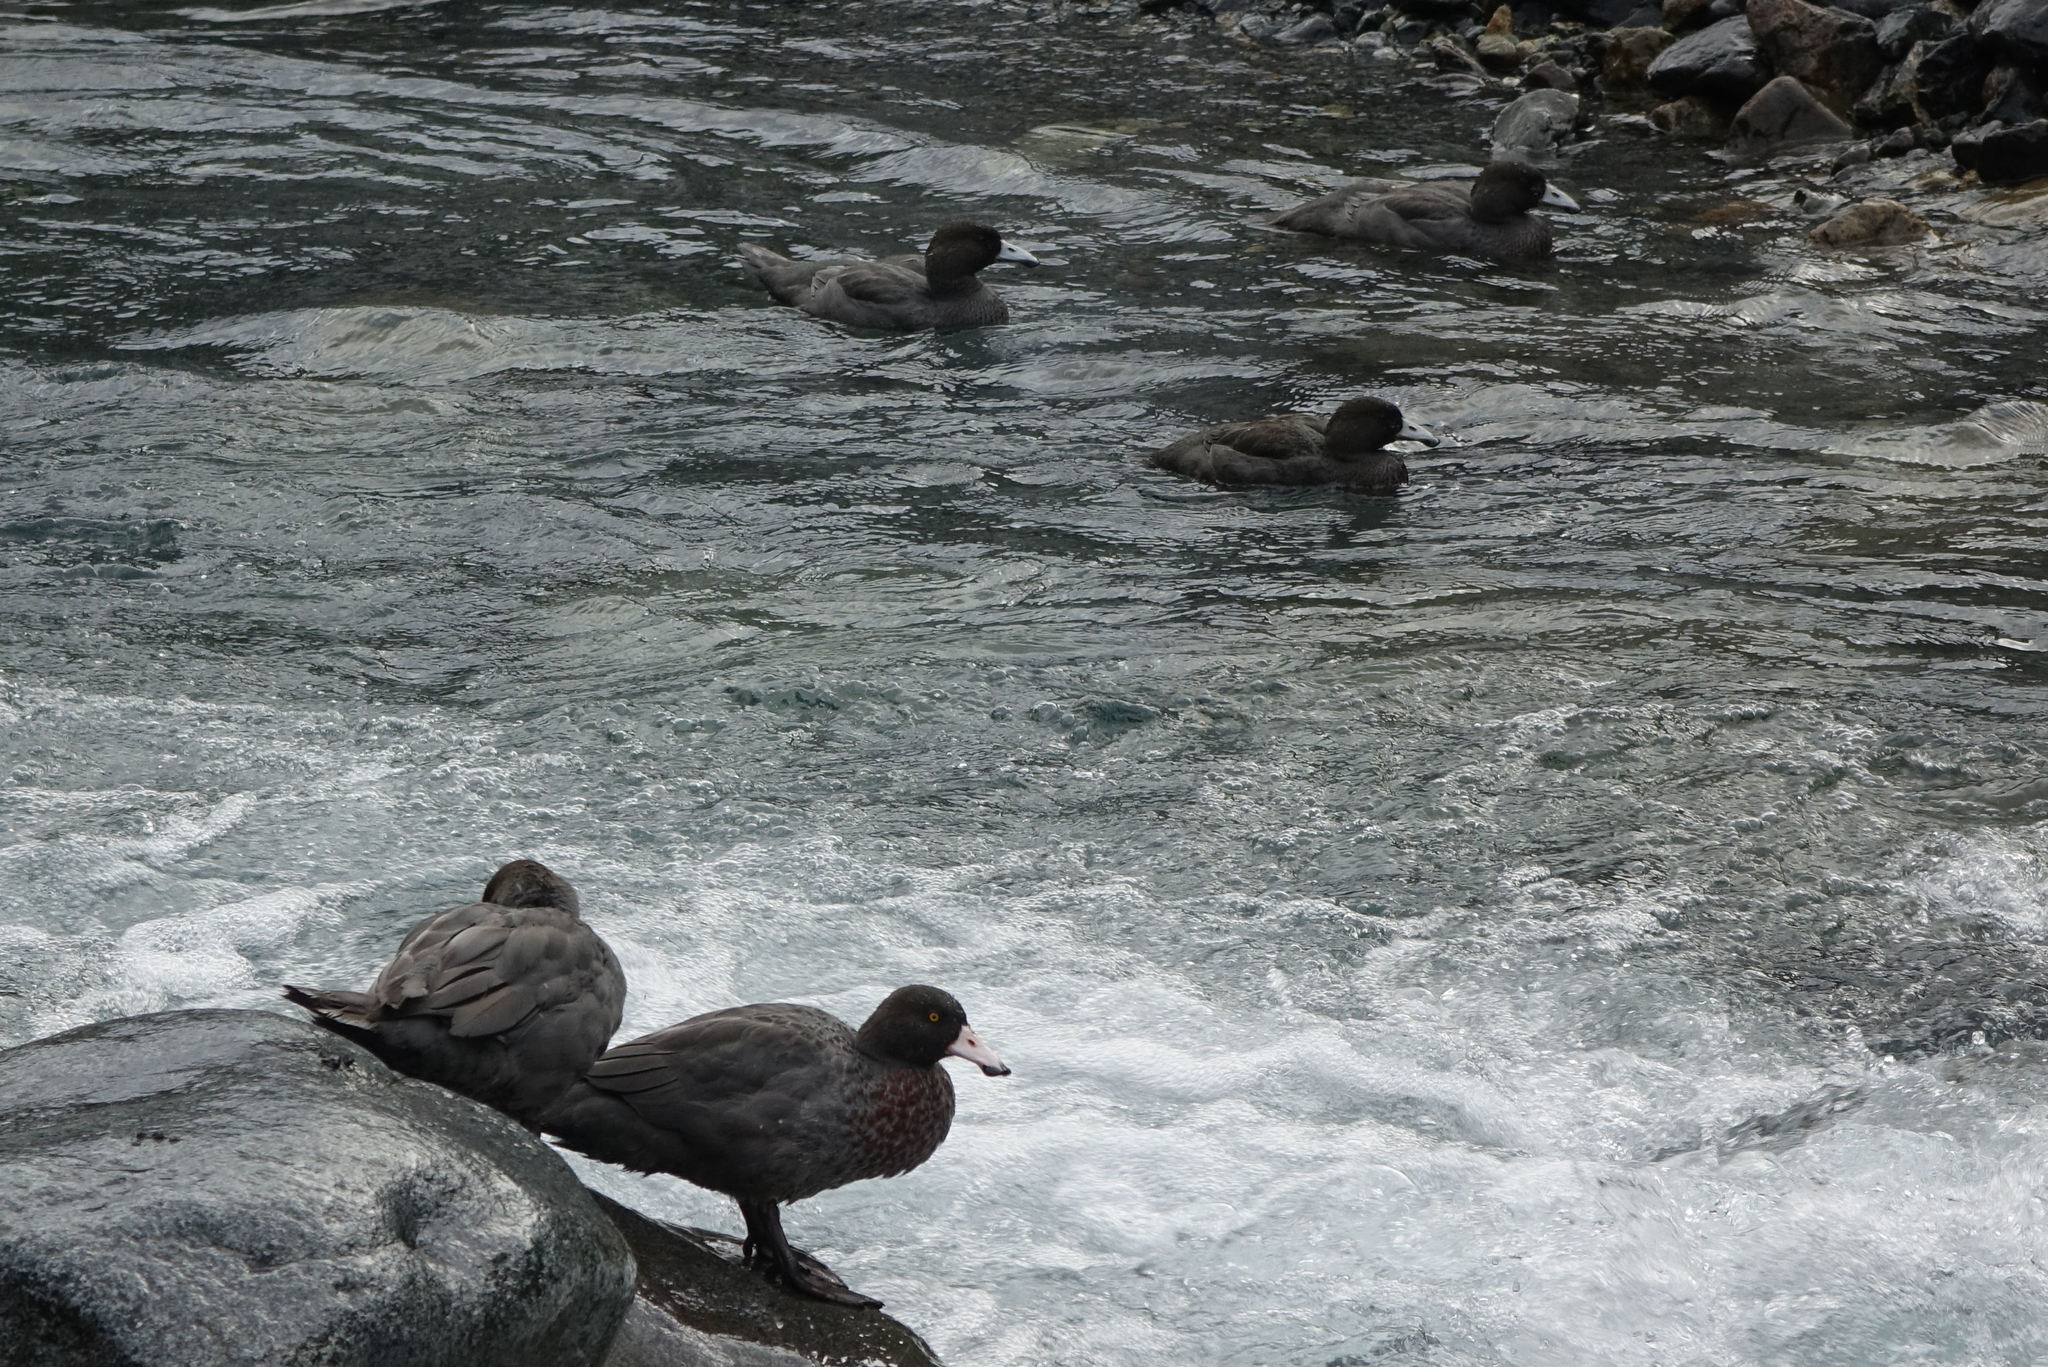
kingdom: Animalia
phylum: Chordata
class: Aves
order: Anseriformes
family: Anatidae
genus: Hymenolaimus
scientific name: Hymenolaimus malacorhynchos
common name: Blue duck
